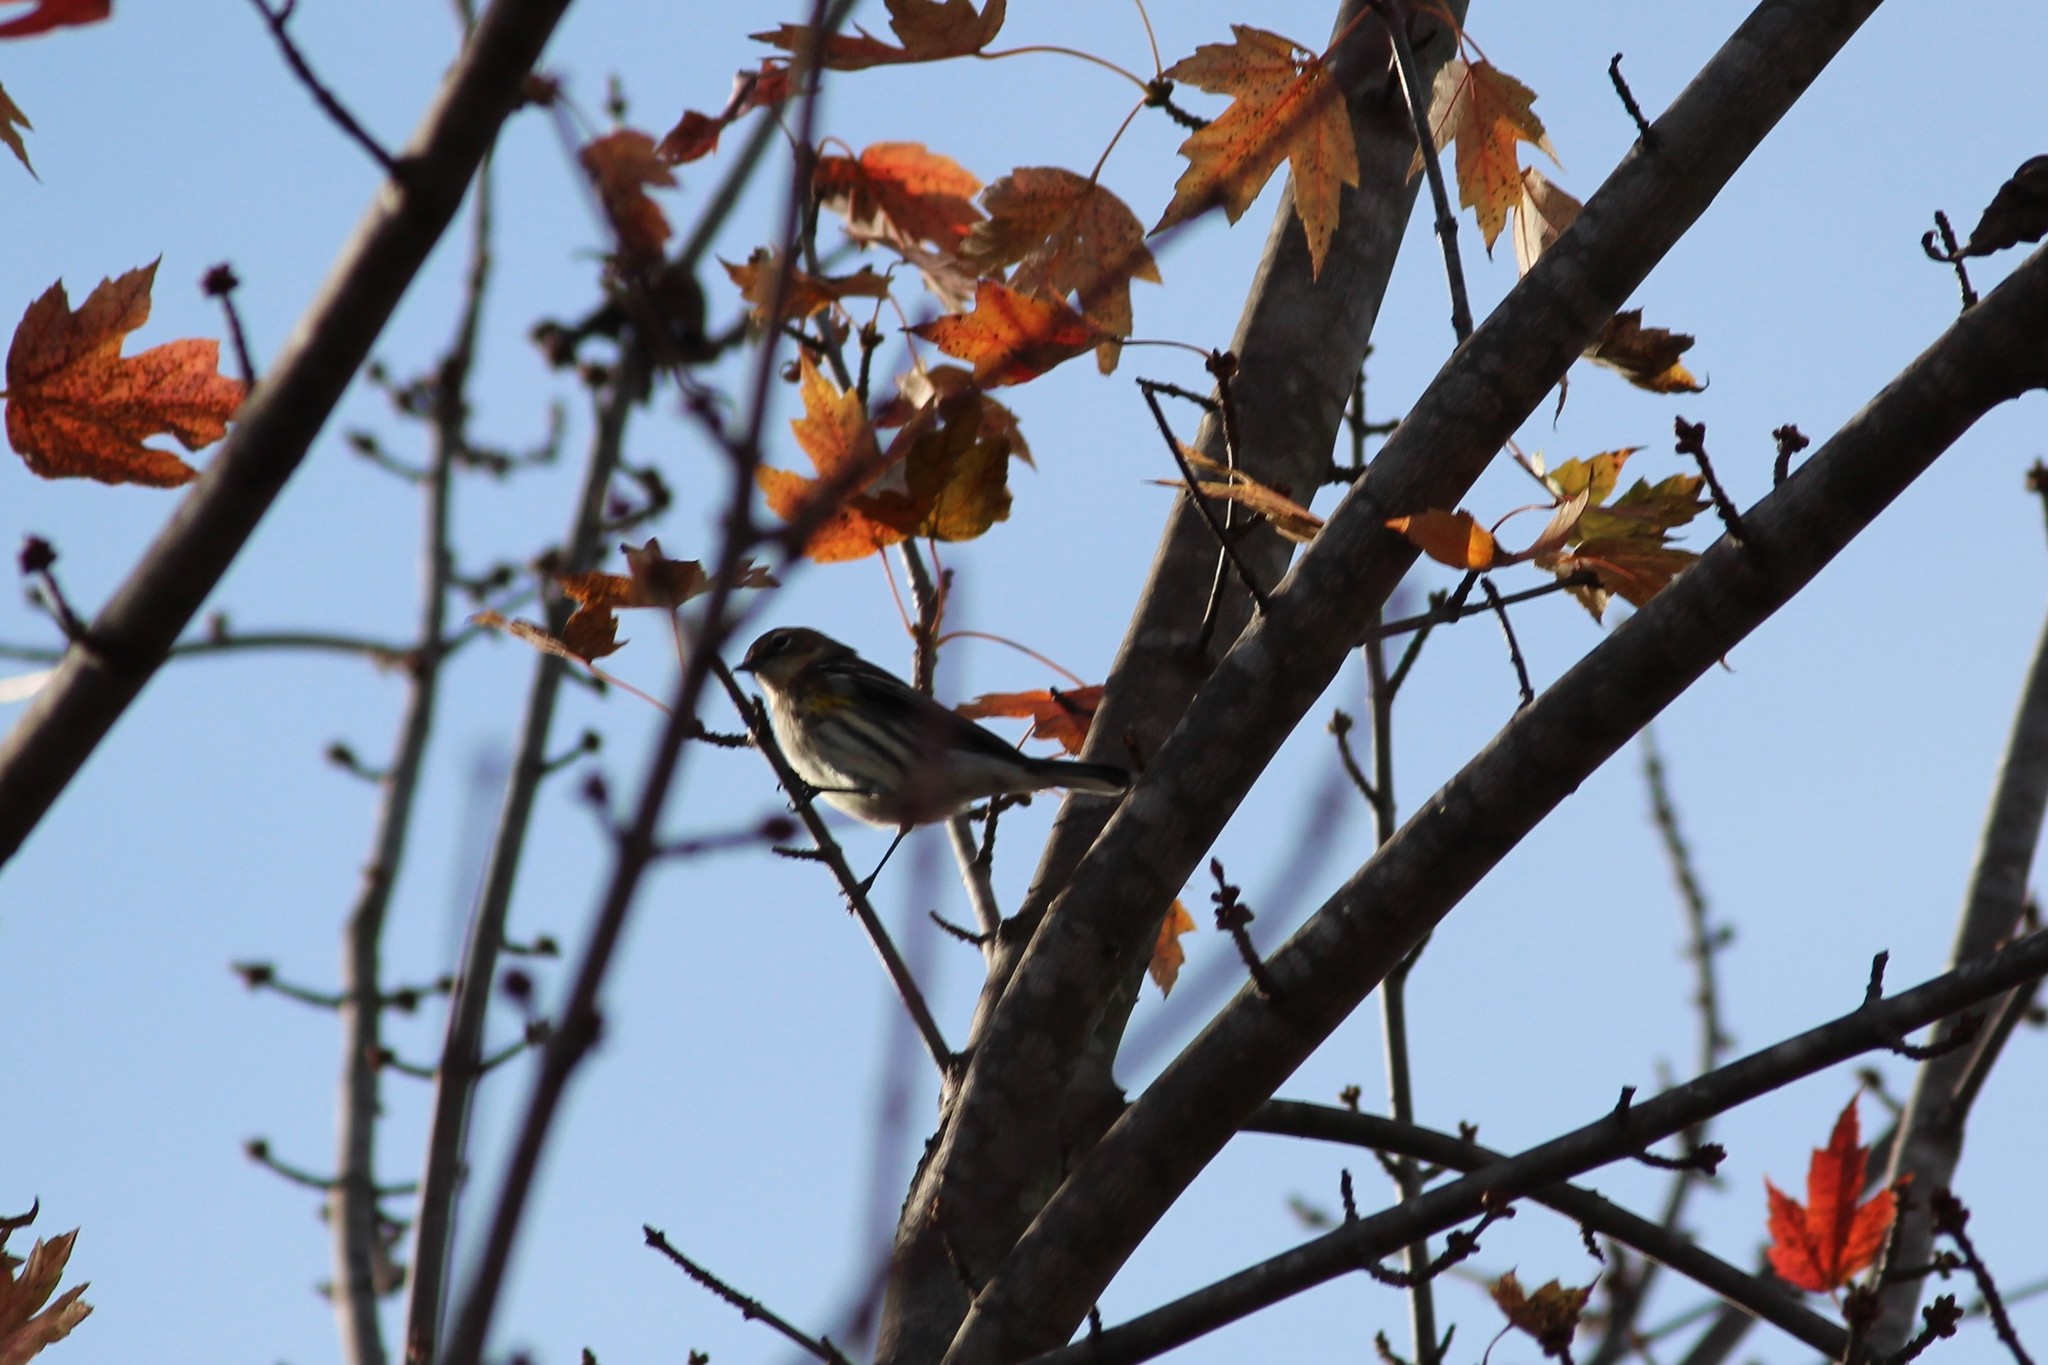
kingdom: Animalia
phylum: Chordata
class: Aves
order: Passeriformes
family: Parulidae
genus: Setophaga
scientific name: Setophaga coronata
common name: Myrtle warbler
